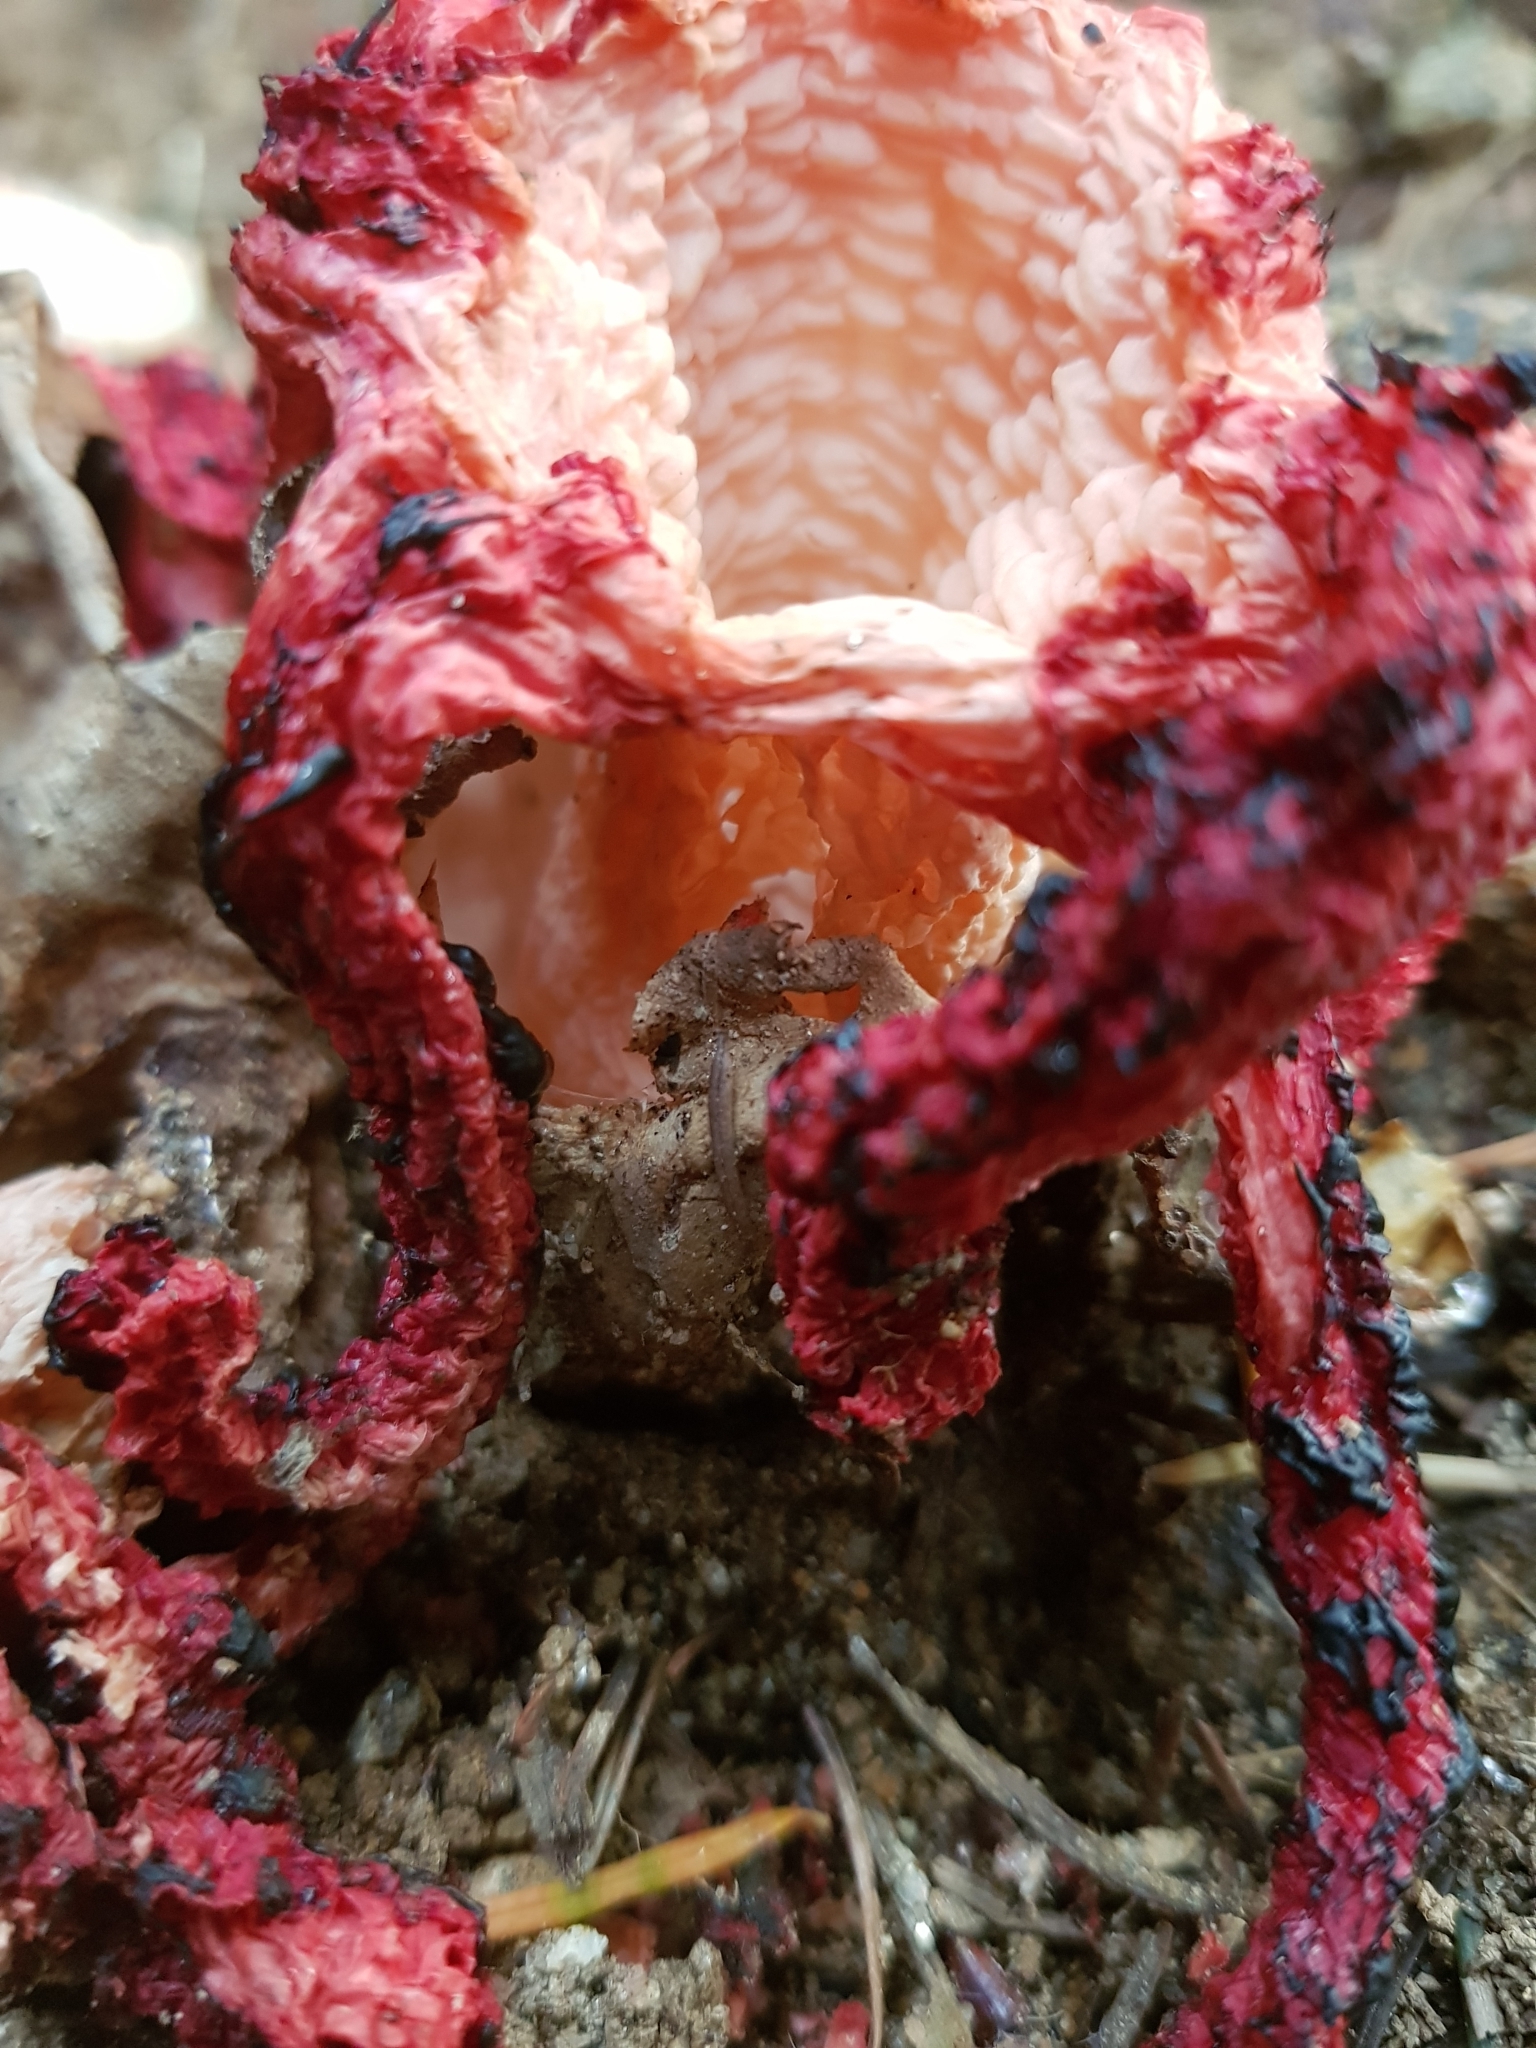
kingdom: Fungi
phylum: Basidiomycota
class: Agaricomycetes
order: Phallales
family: Phallaceae
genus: Clathrus
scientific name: Clathrus archeri
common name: Devil's fingers
